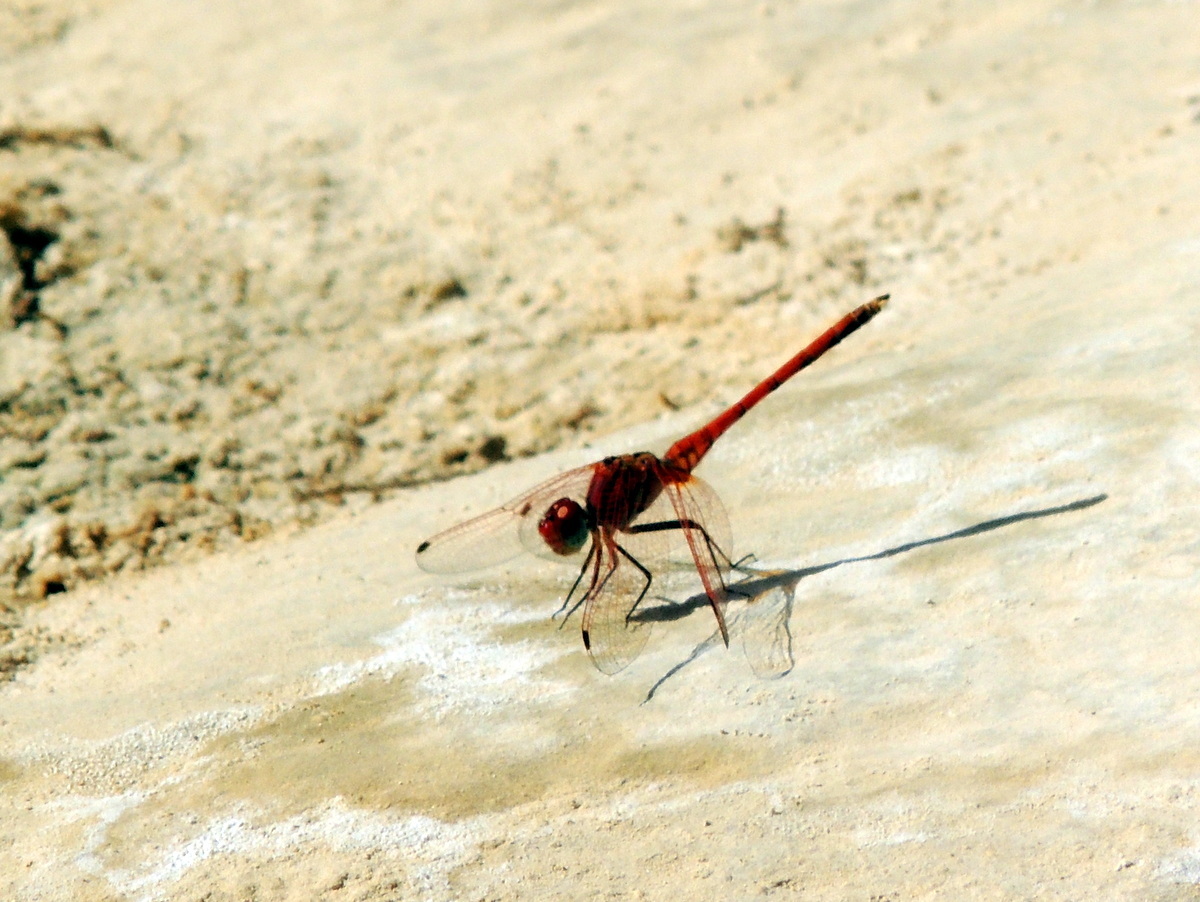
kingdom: Animalia
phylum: Arthropoda
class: Insecta
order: Odonata
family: Libellulidae
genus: Trithemis
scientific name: Trithemis arteriosa
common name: Red-veined dropwing
